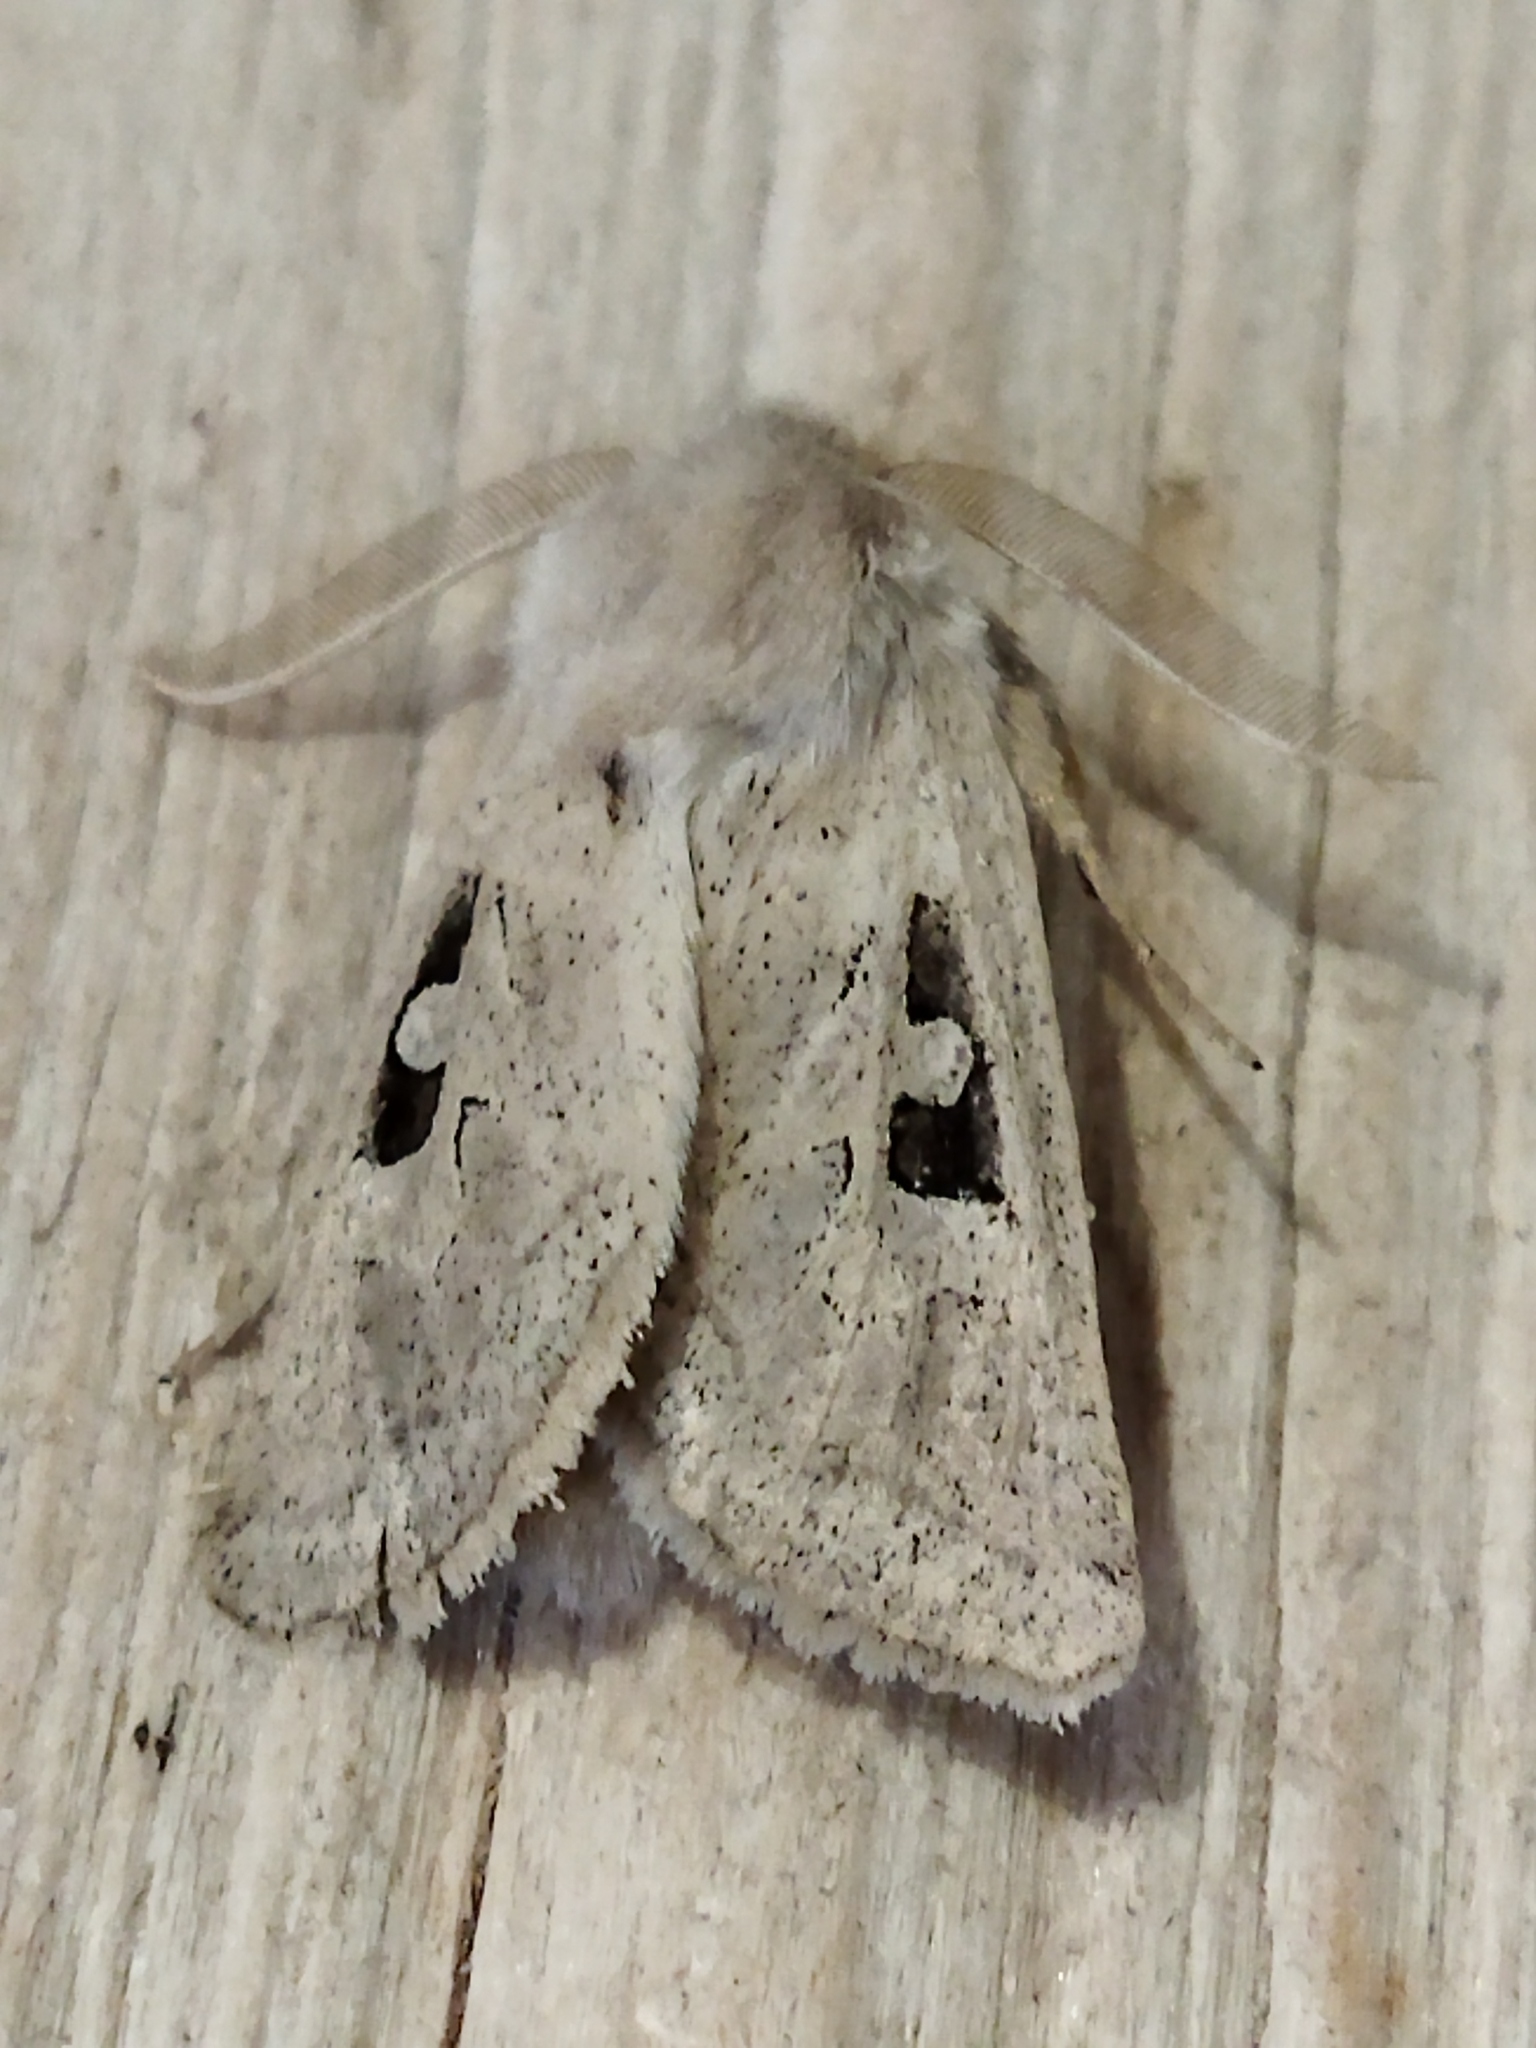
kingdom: Animalia
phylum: Arthropoda
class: Insecta
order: Lepidoptera
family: Noctuidae
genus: Episema
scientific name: Episema glaucina
